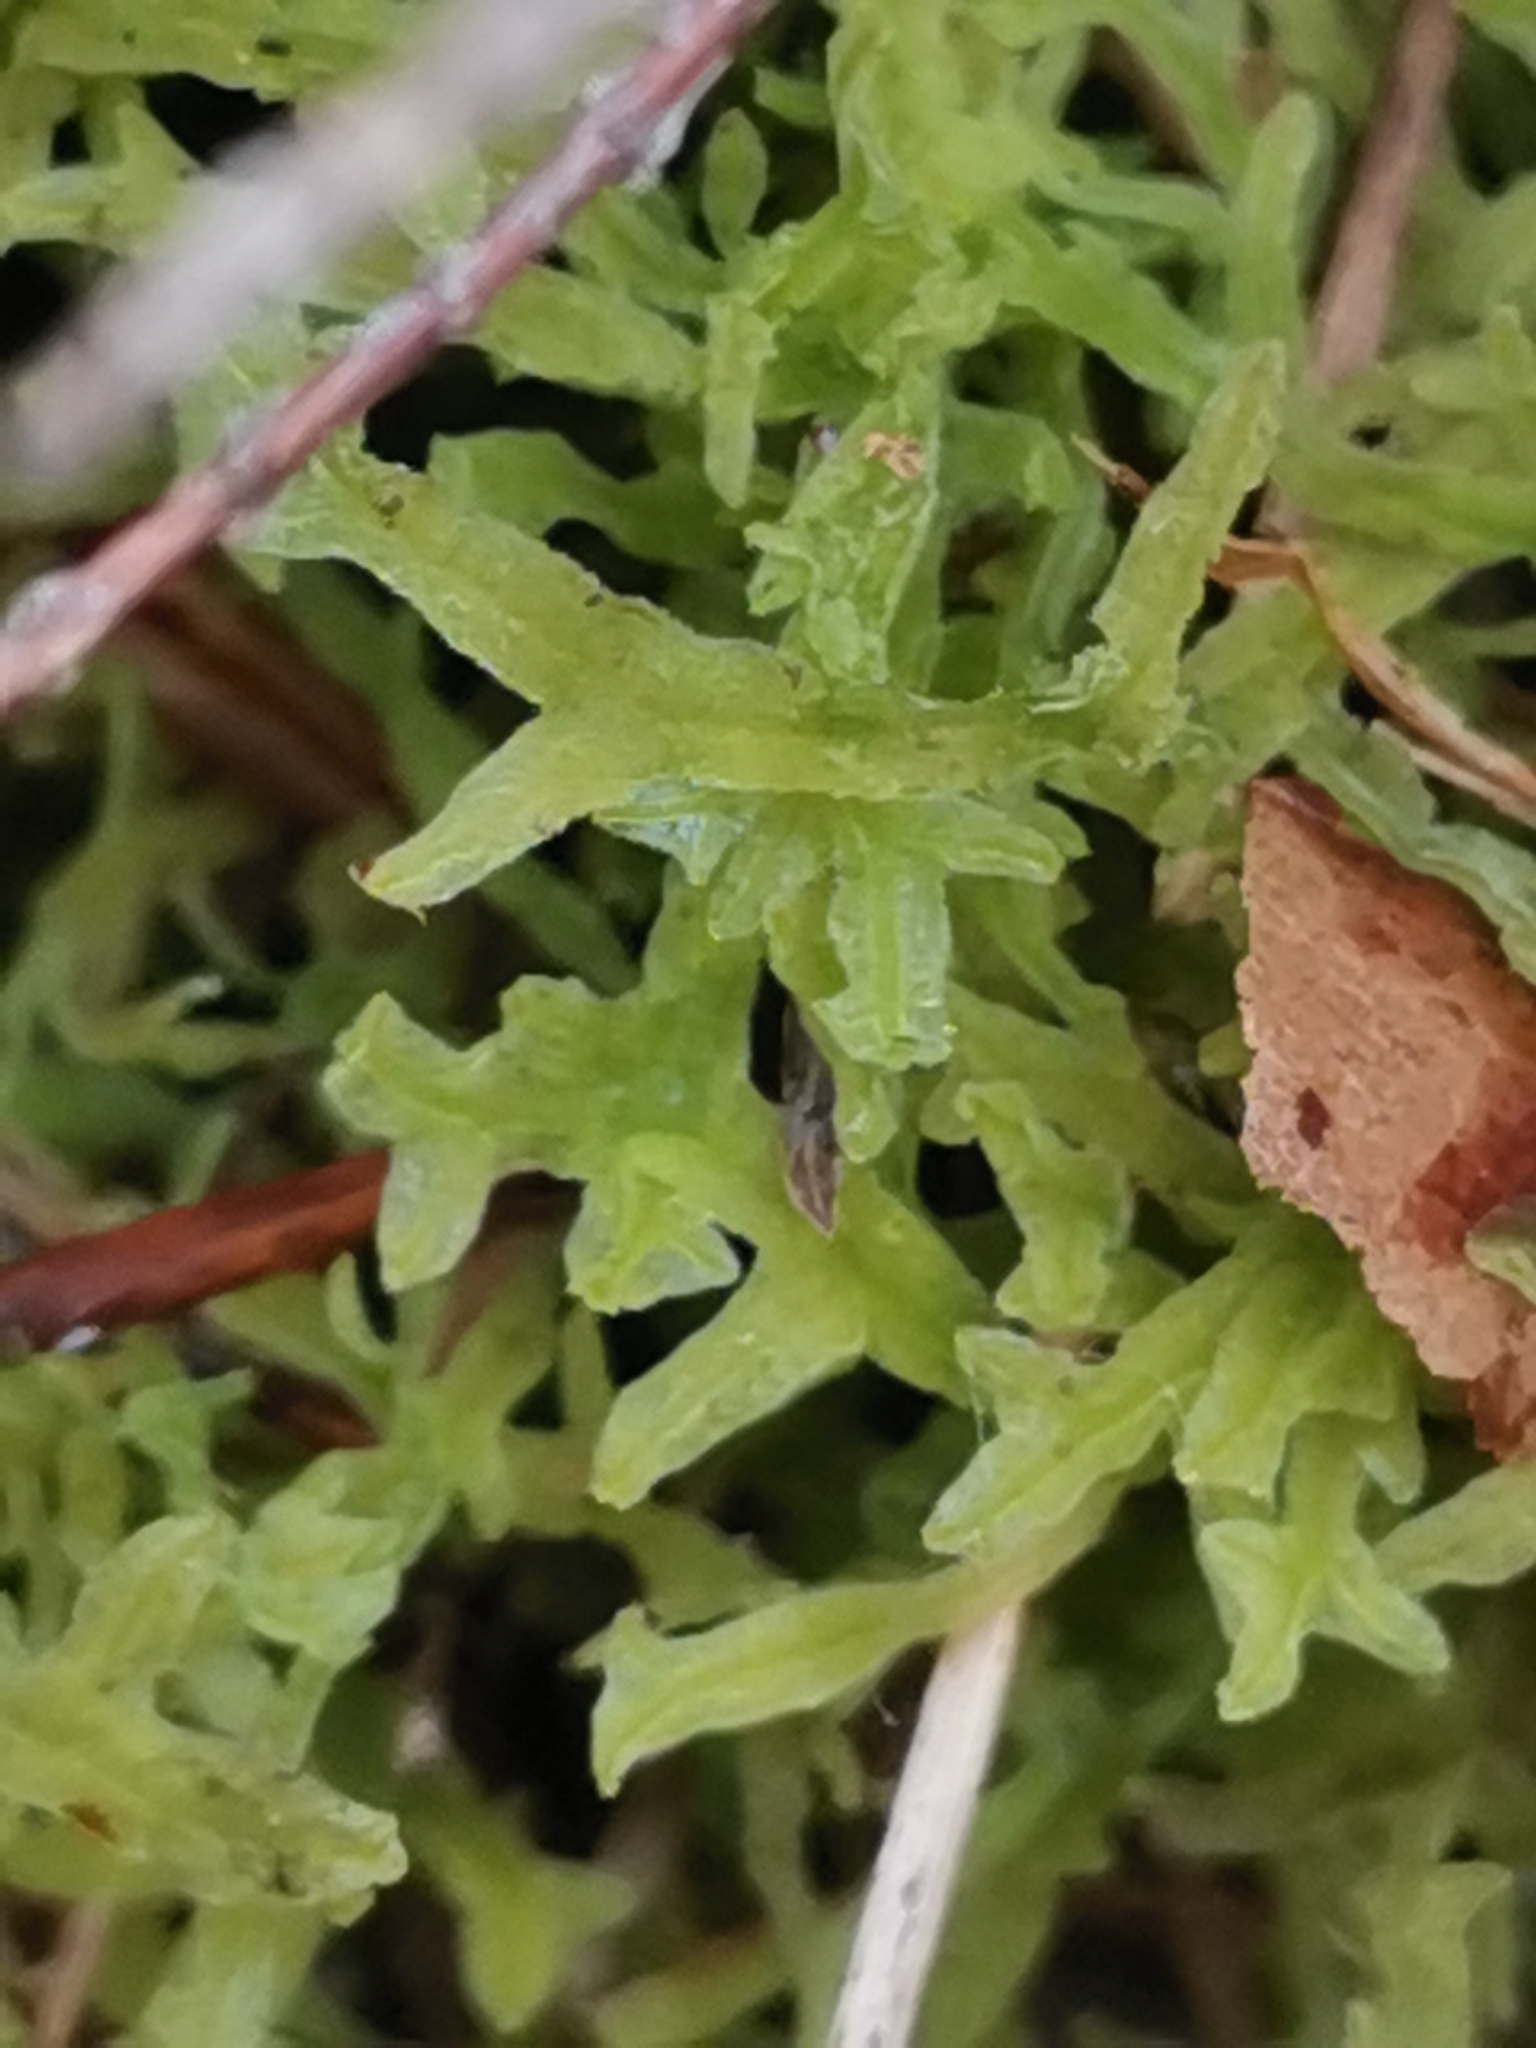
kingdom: Plantae
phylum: Marchantiophyta
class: Jungermanniopsida
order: Metzgeriales
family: Metzgeriaceae
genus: Metzgeria
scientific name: Metzgeria pubescens
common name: Downy veilwort
